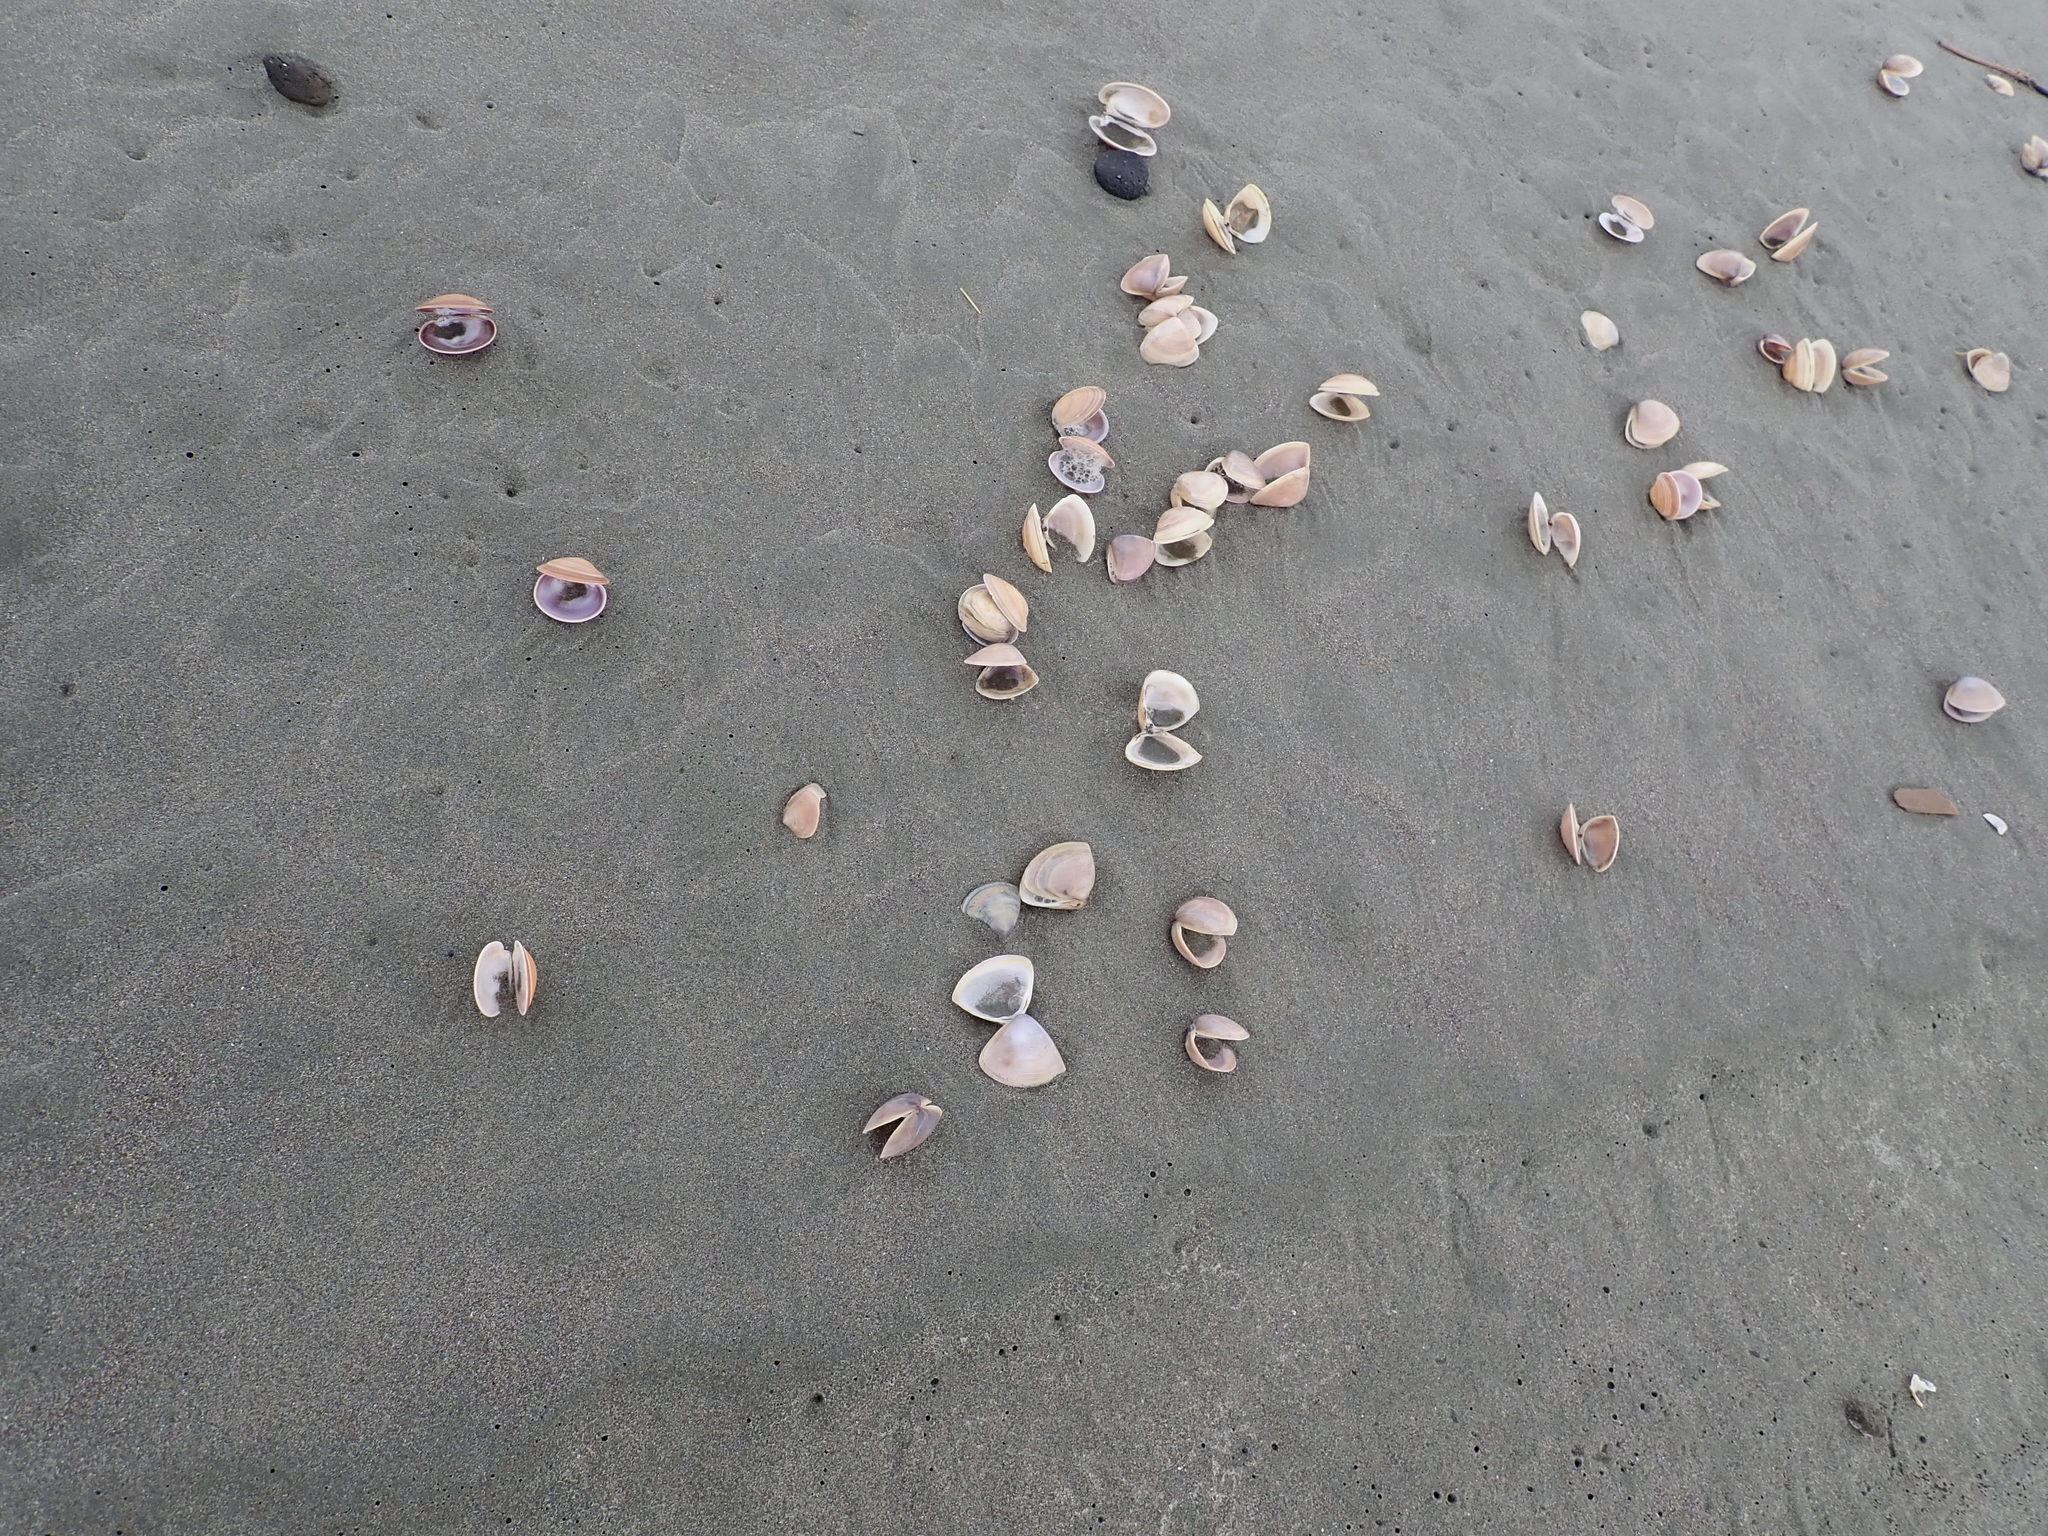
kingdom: Animalia
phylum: Mollusca
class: Bivalvia
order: Venerida
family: Mactridae
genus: Crassula
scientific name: Crassula aequilatera
